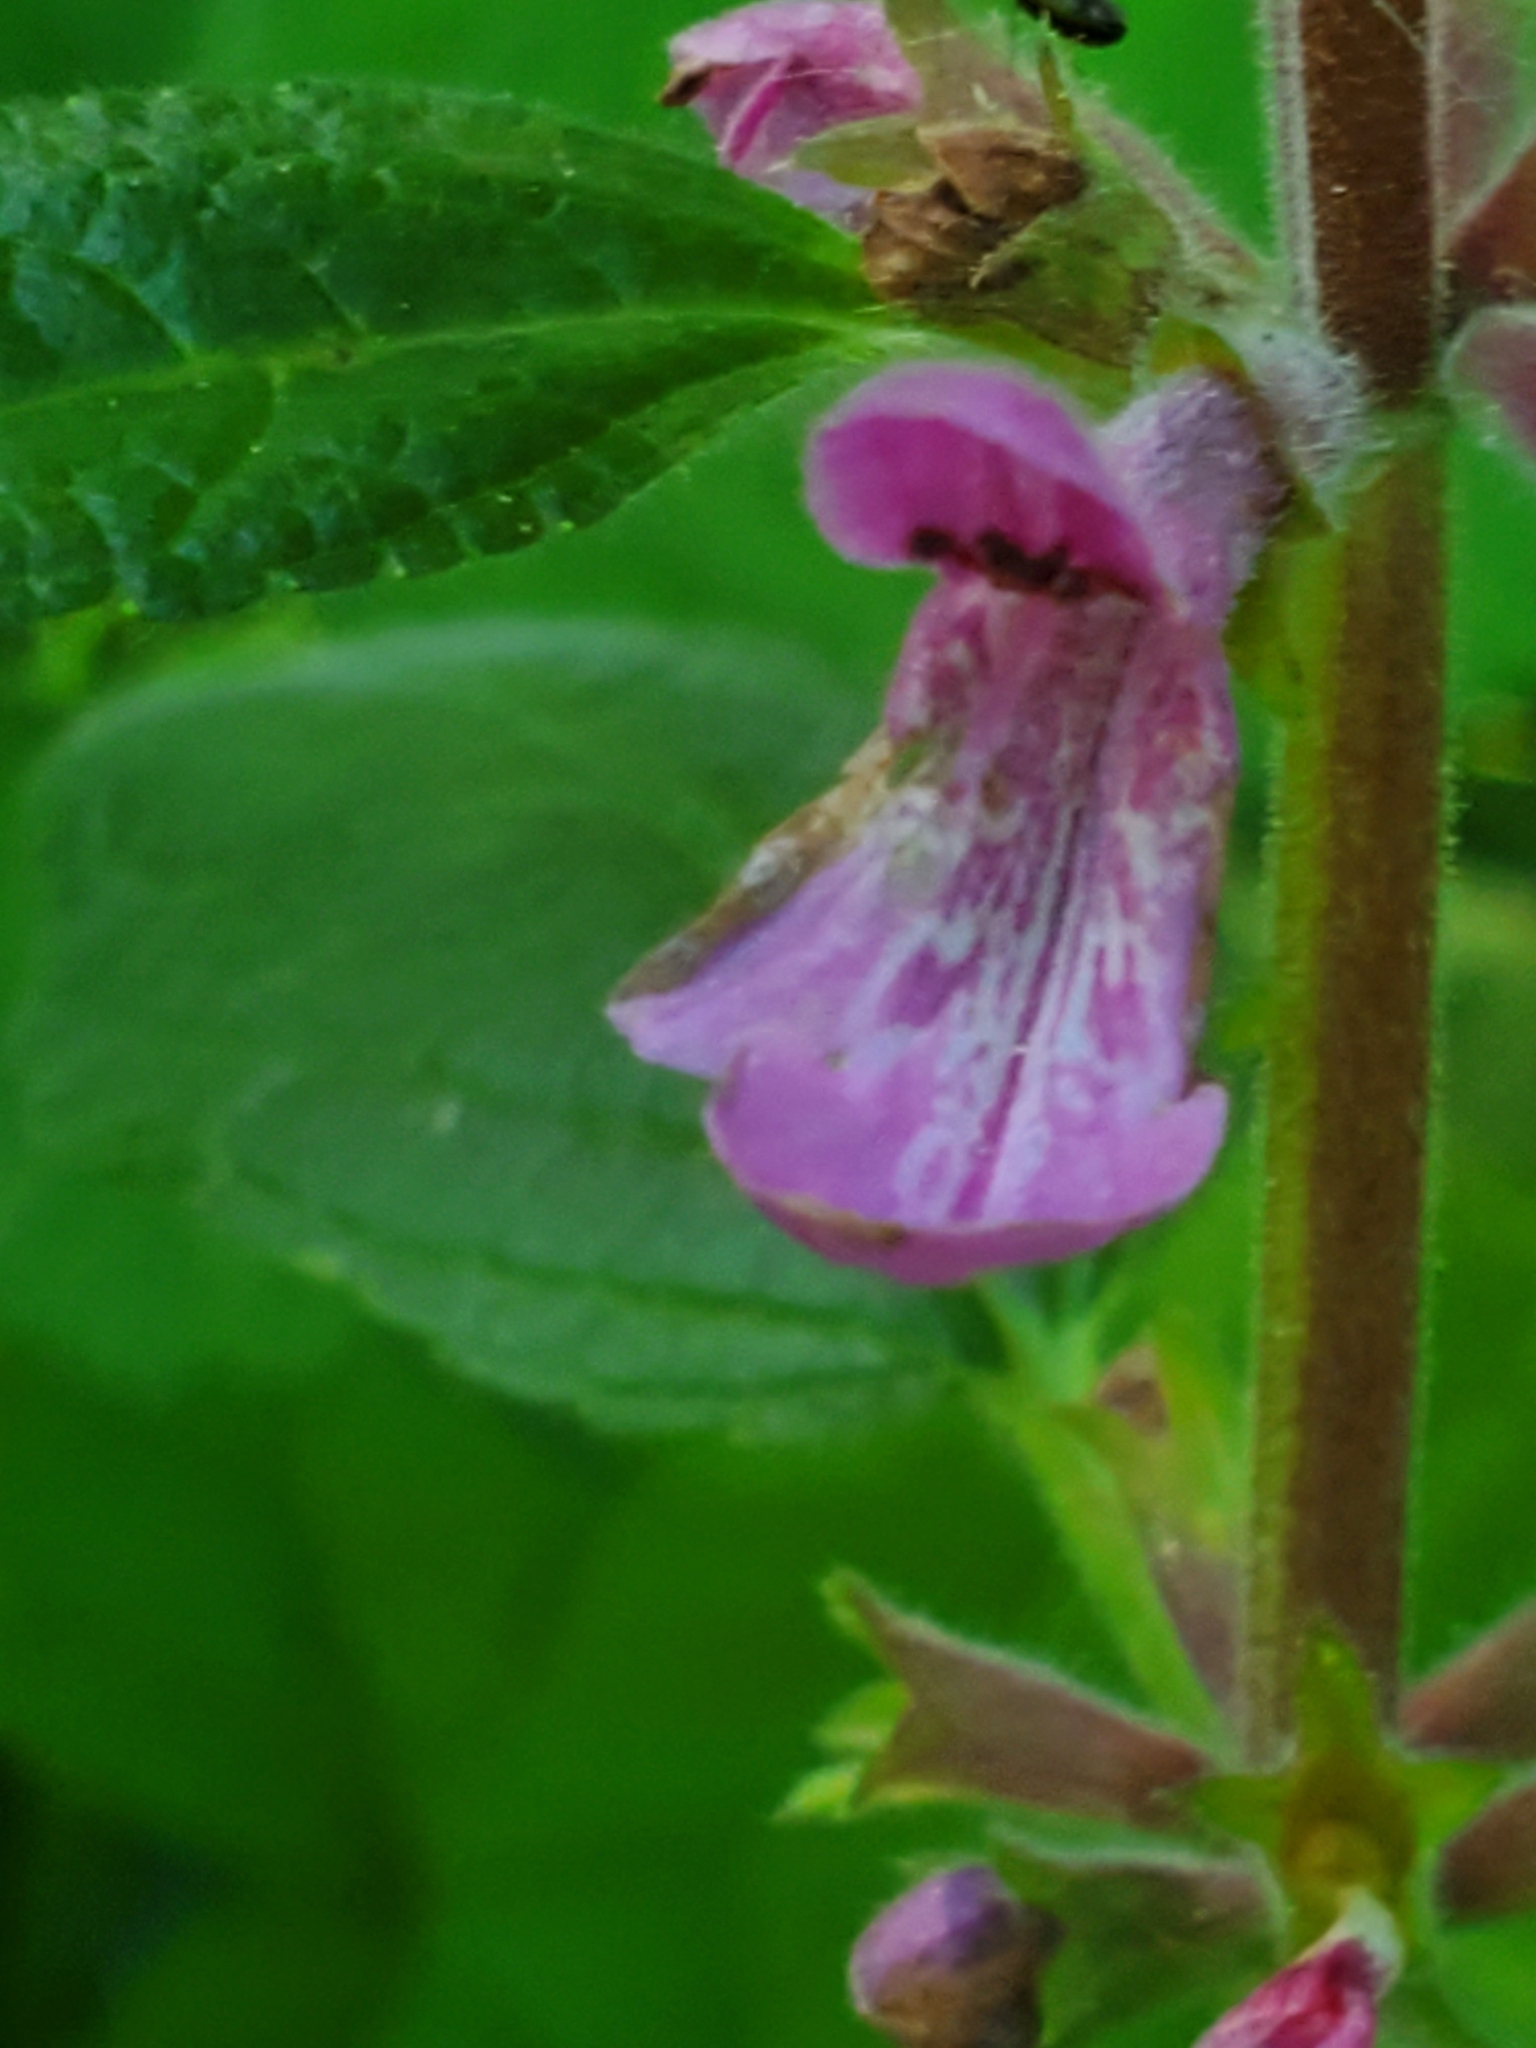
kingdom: Plantae
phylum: Tracheophyta
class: Magnoliopsida
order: Lamiales
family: Lamiaceae
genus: Stachys
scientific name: Stachys chamissonis
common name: Coastal hedge-nettle
